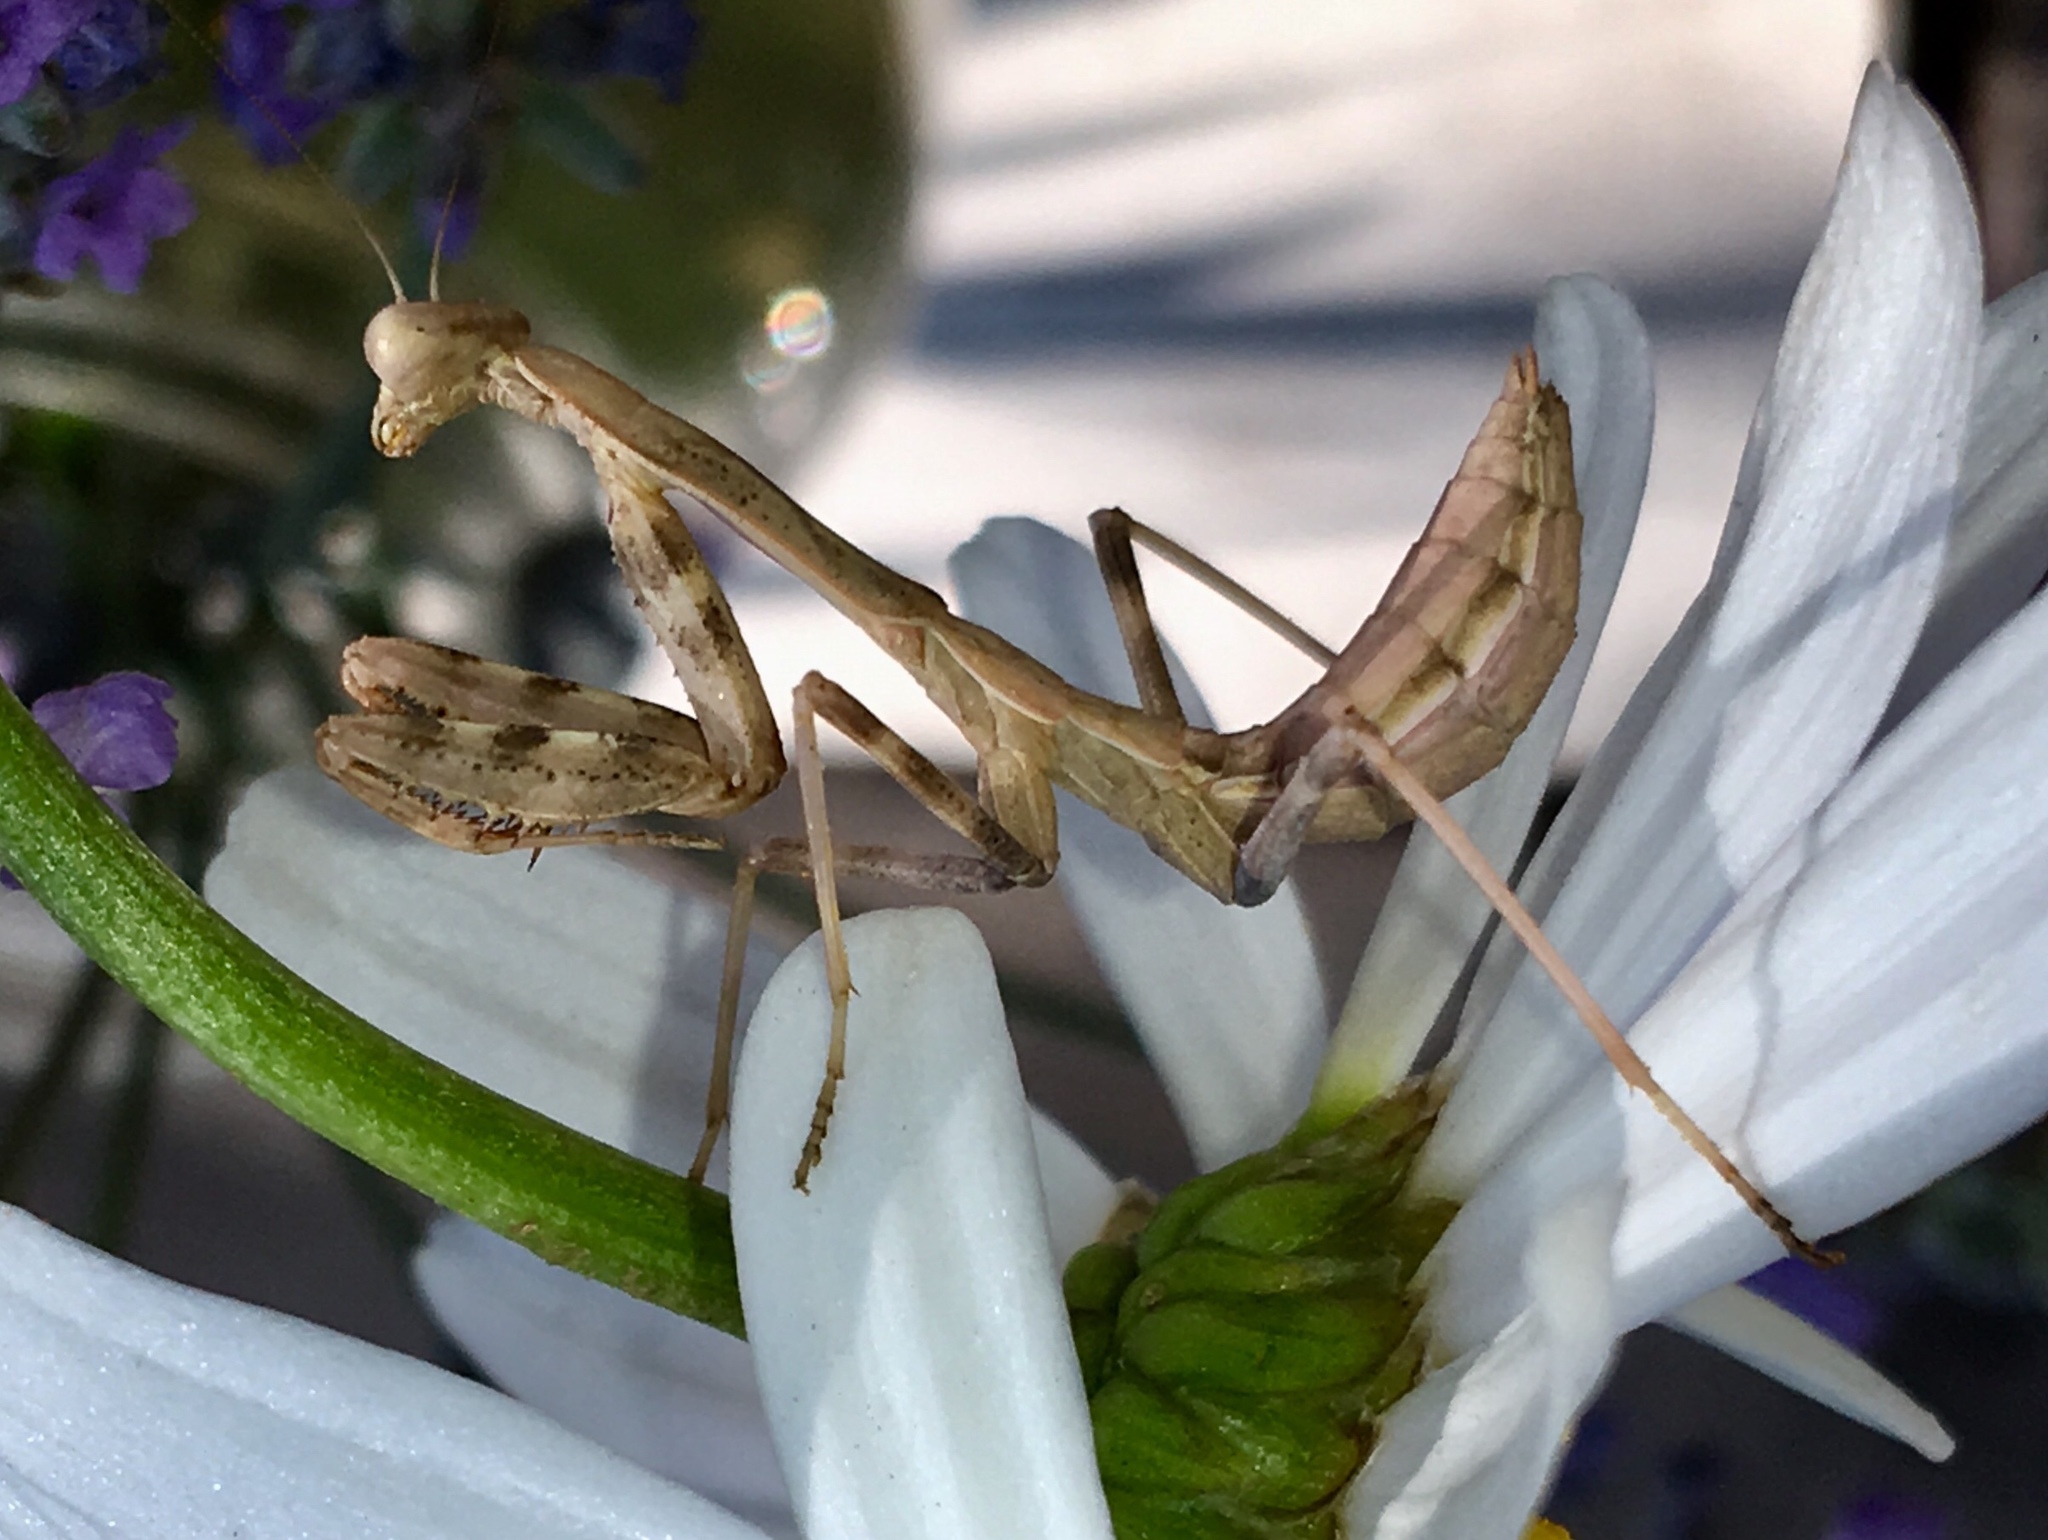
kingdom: Animalia
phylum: Arthropoda
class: Insecta
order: Mantodea
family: Mantidae
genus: Stagmomantis
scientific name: Stagmomantis limbata
